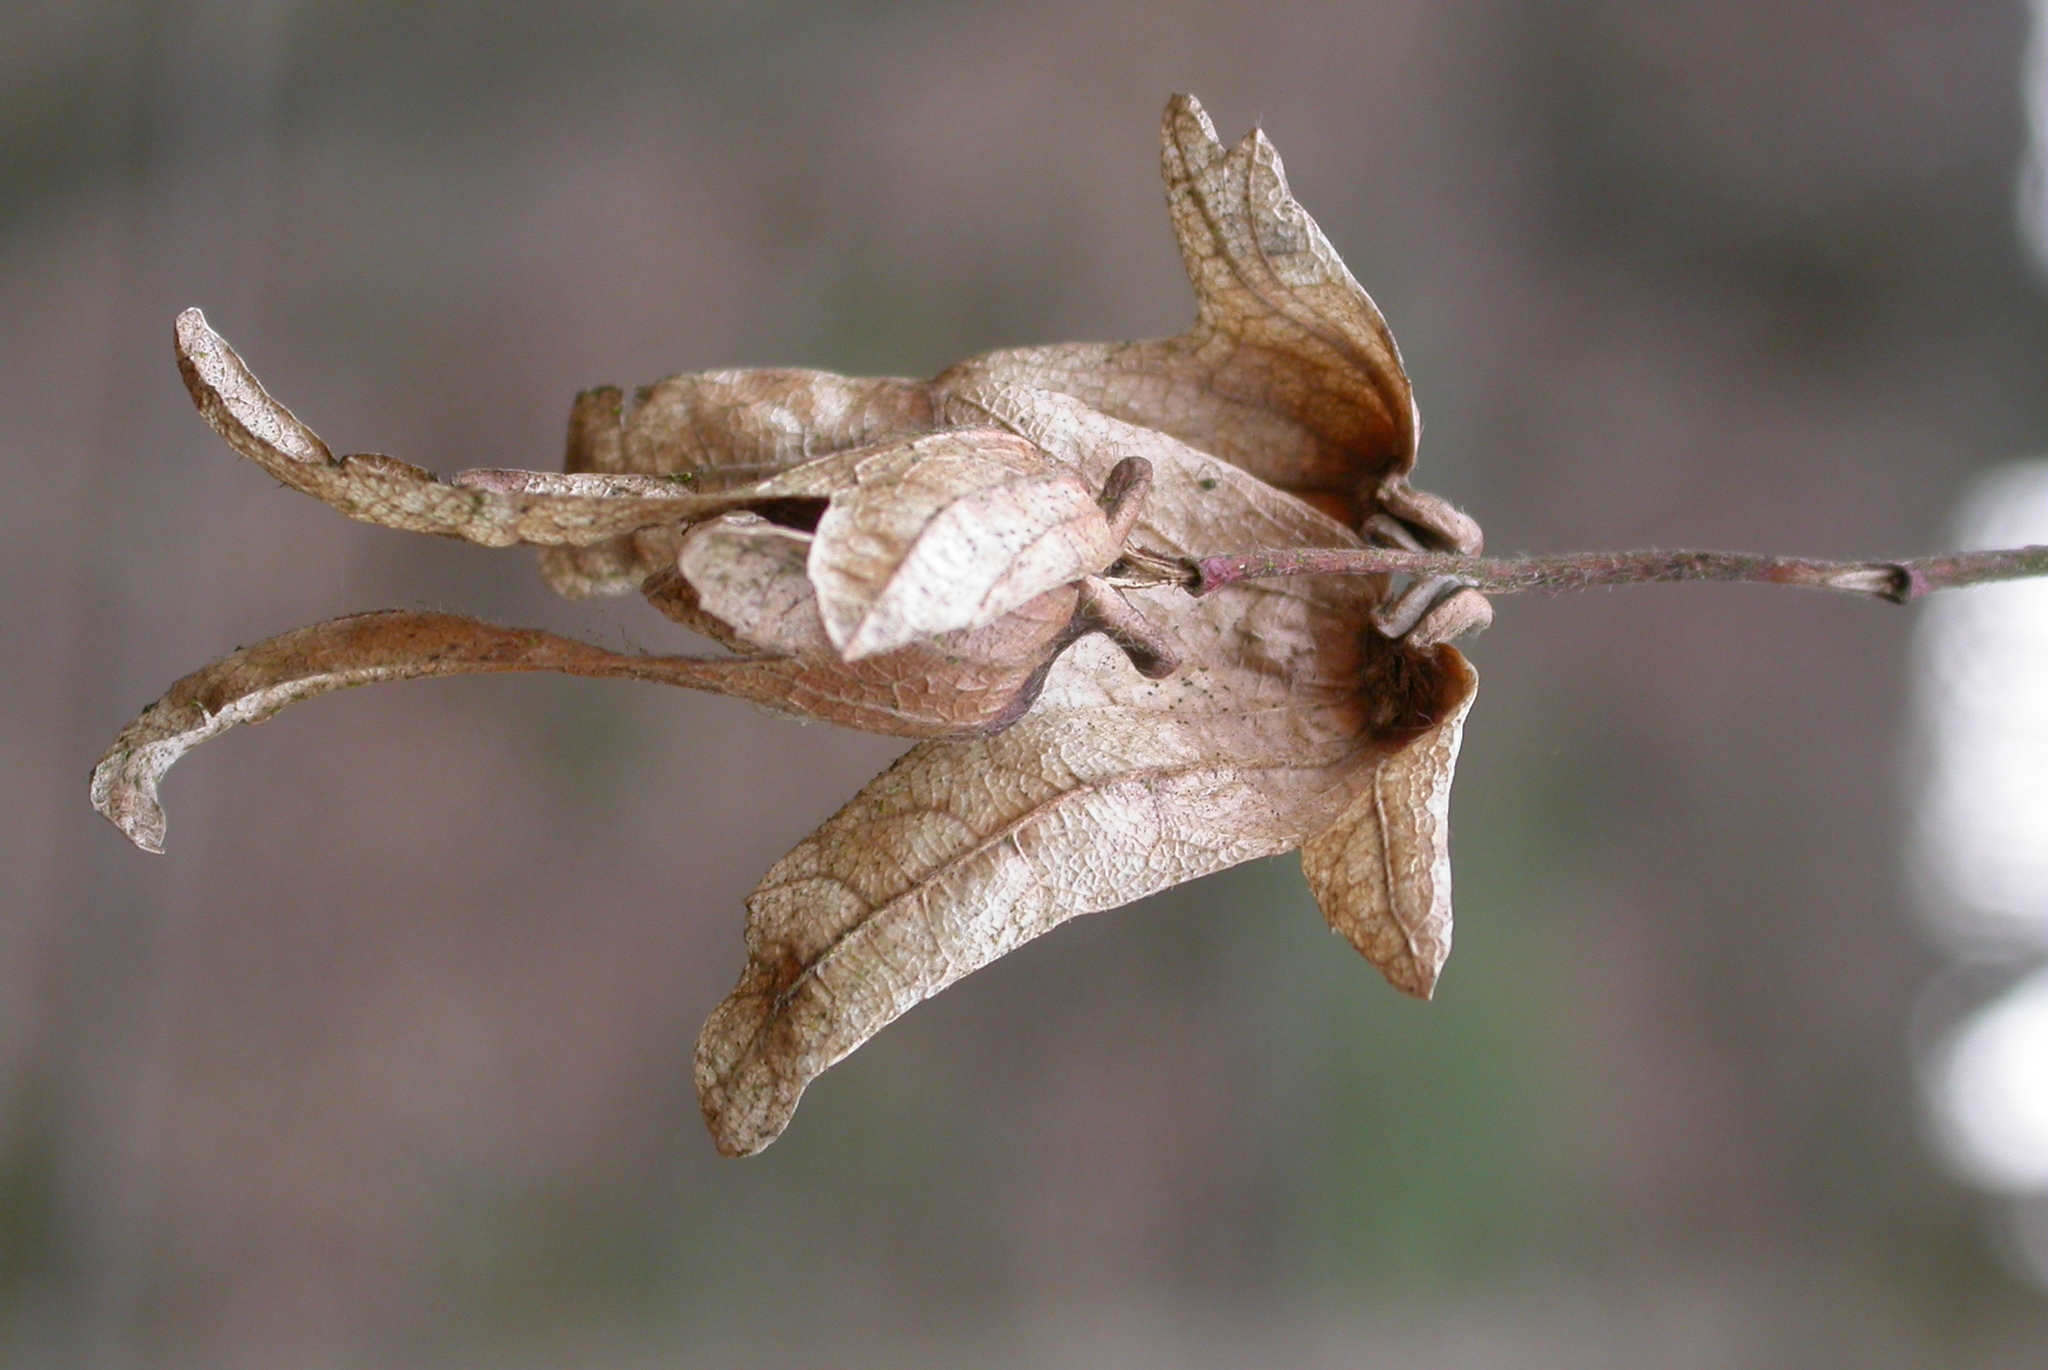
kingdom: Plantae
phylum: Tracheophyta
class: Magnoliopsida
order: Fagales
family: Betulaceae
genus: Carpinus
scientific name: Carpinus betulus
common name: Hornbeam
